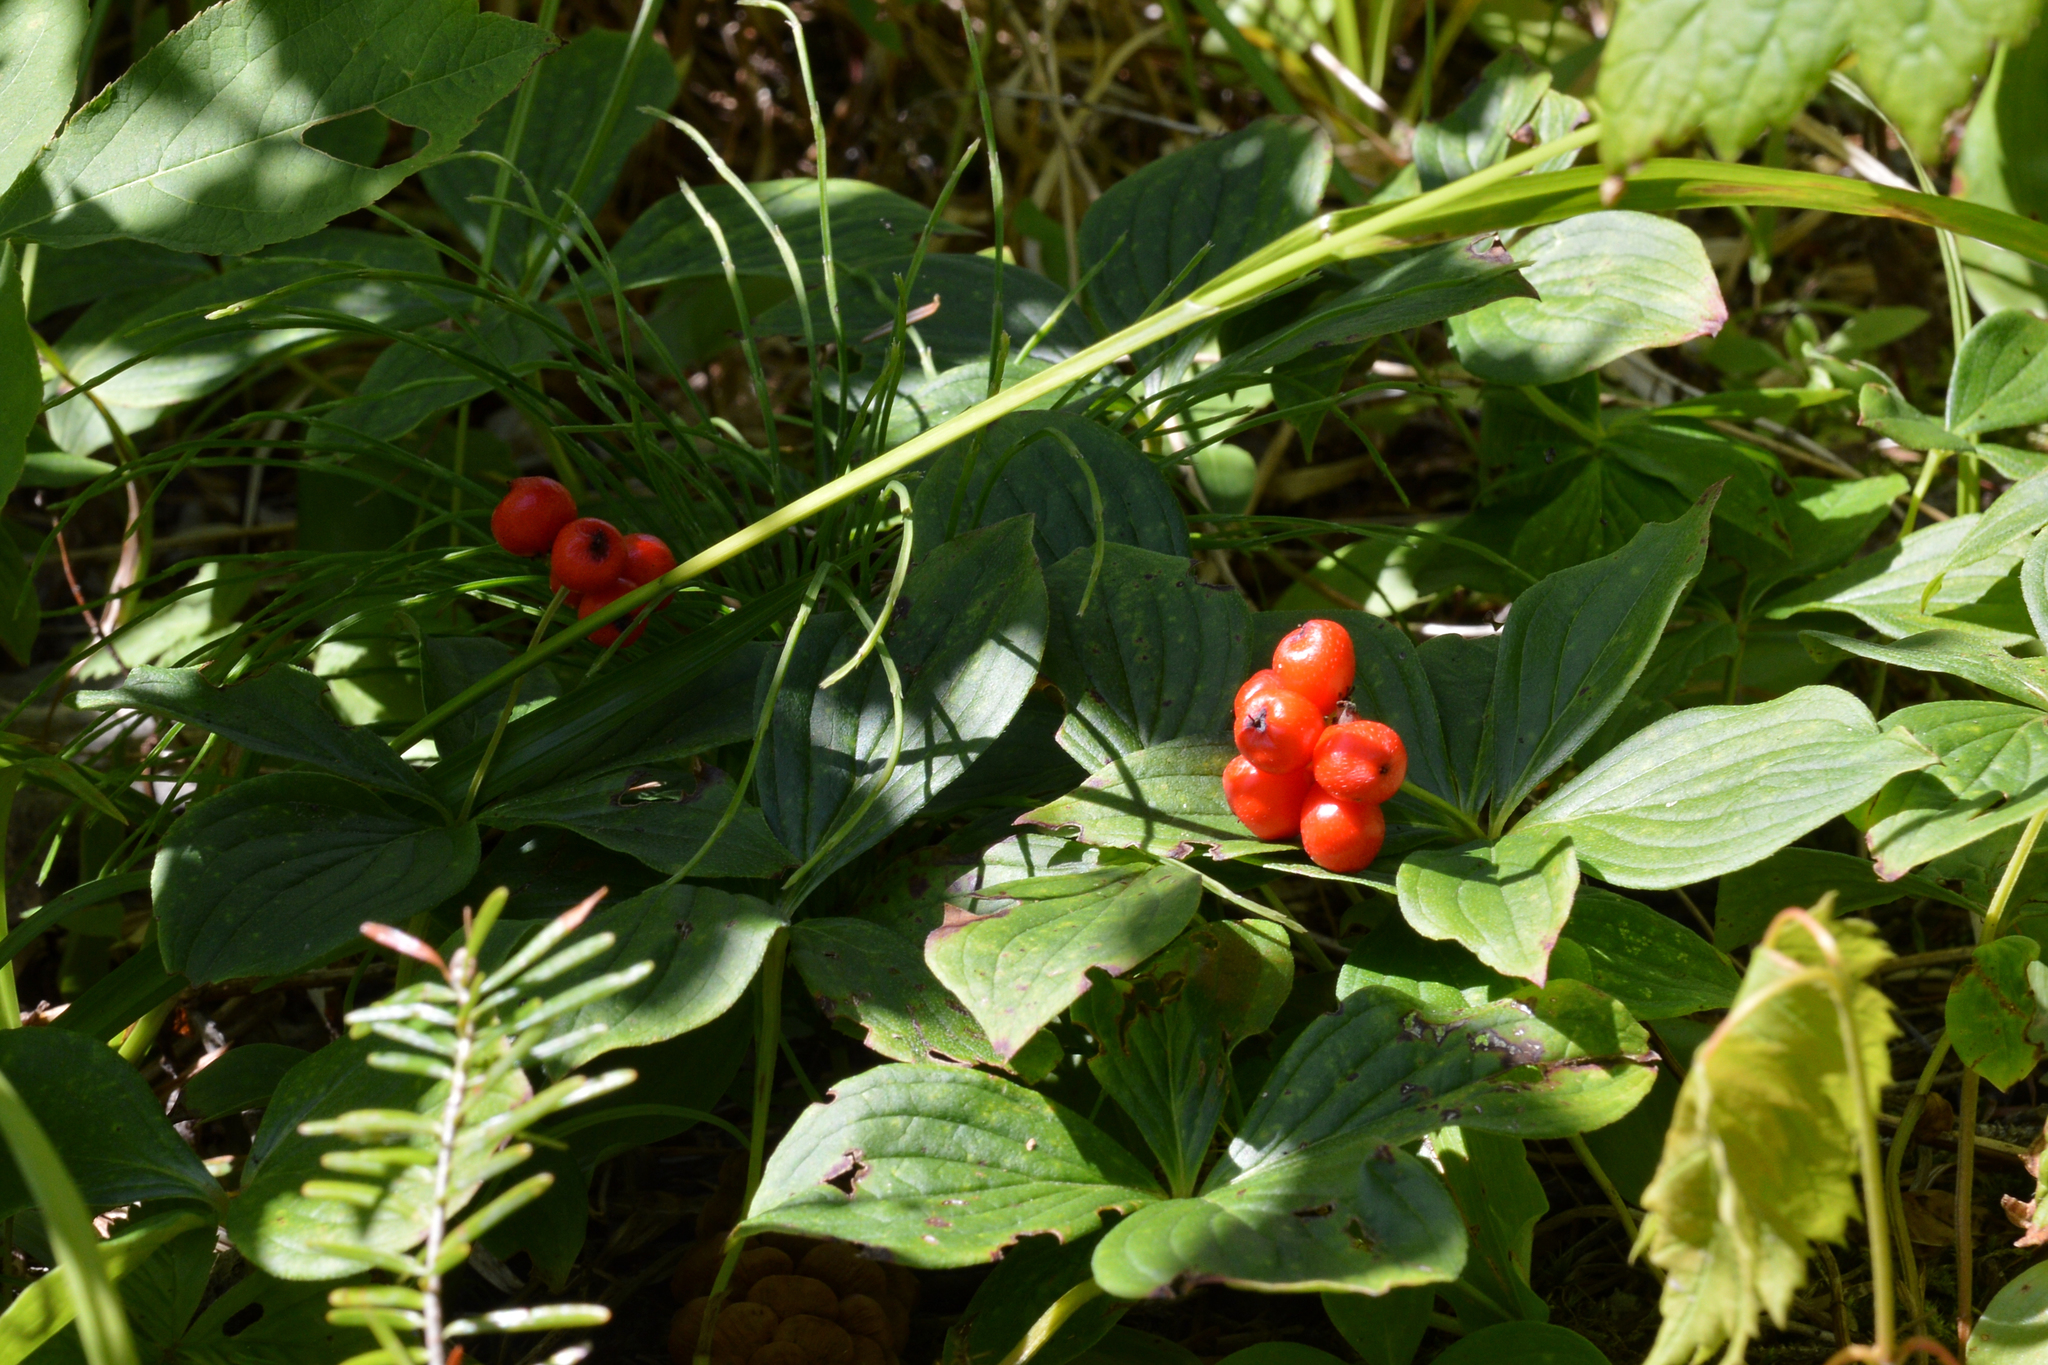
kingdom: Plantae
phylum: Tracheophyta
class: Magnoliopsida
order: Cornales
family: Cornaceae
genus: Cornus
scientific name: Cornus canadensis
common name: Creeping dogwood
